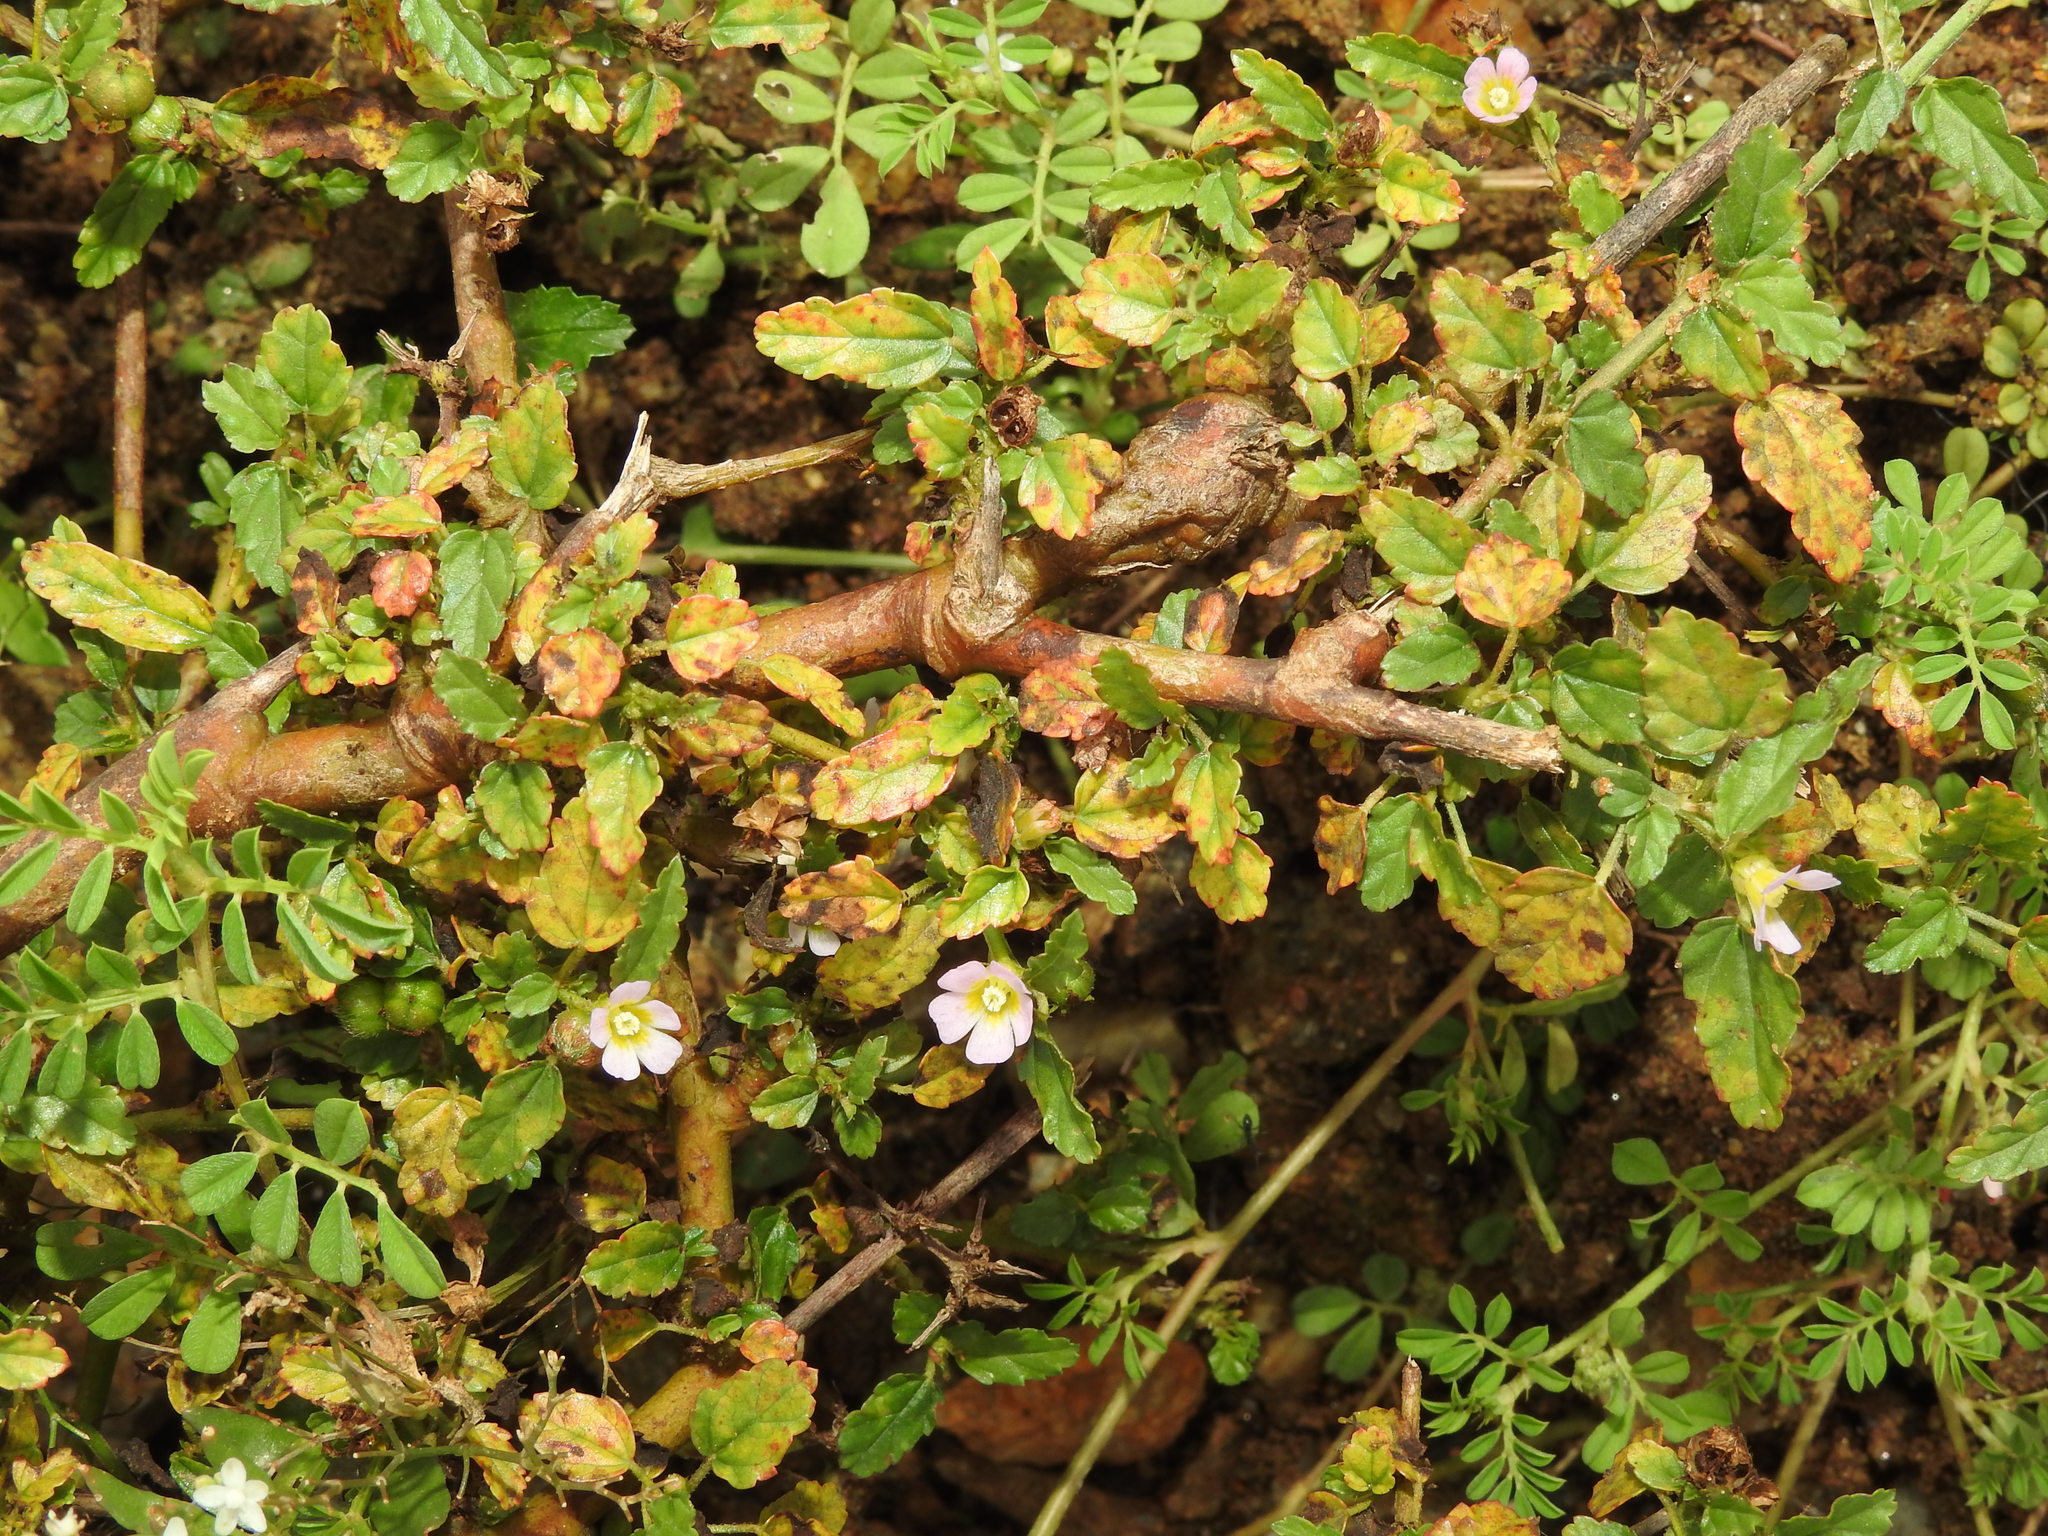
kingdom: Plantae
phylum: Tracheophyta
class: Magnoliopsida
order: Malvales
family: Malvaceae
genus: Melochia
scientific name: Melochia corchorifolia
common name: Chocolateweed
